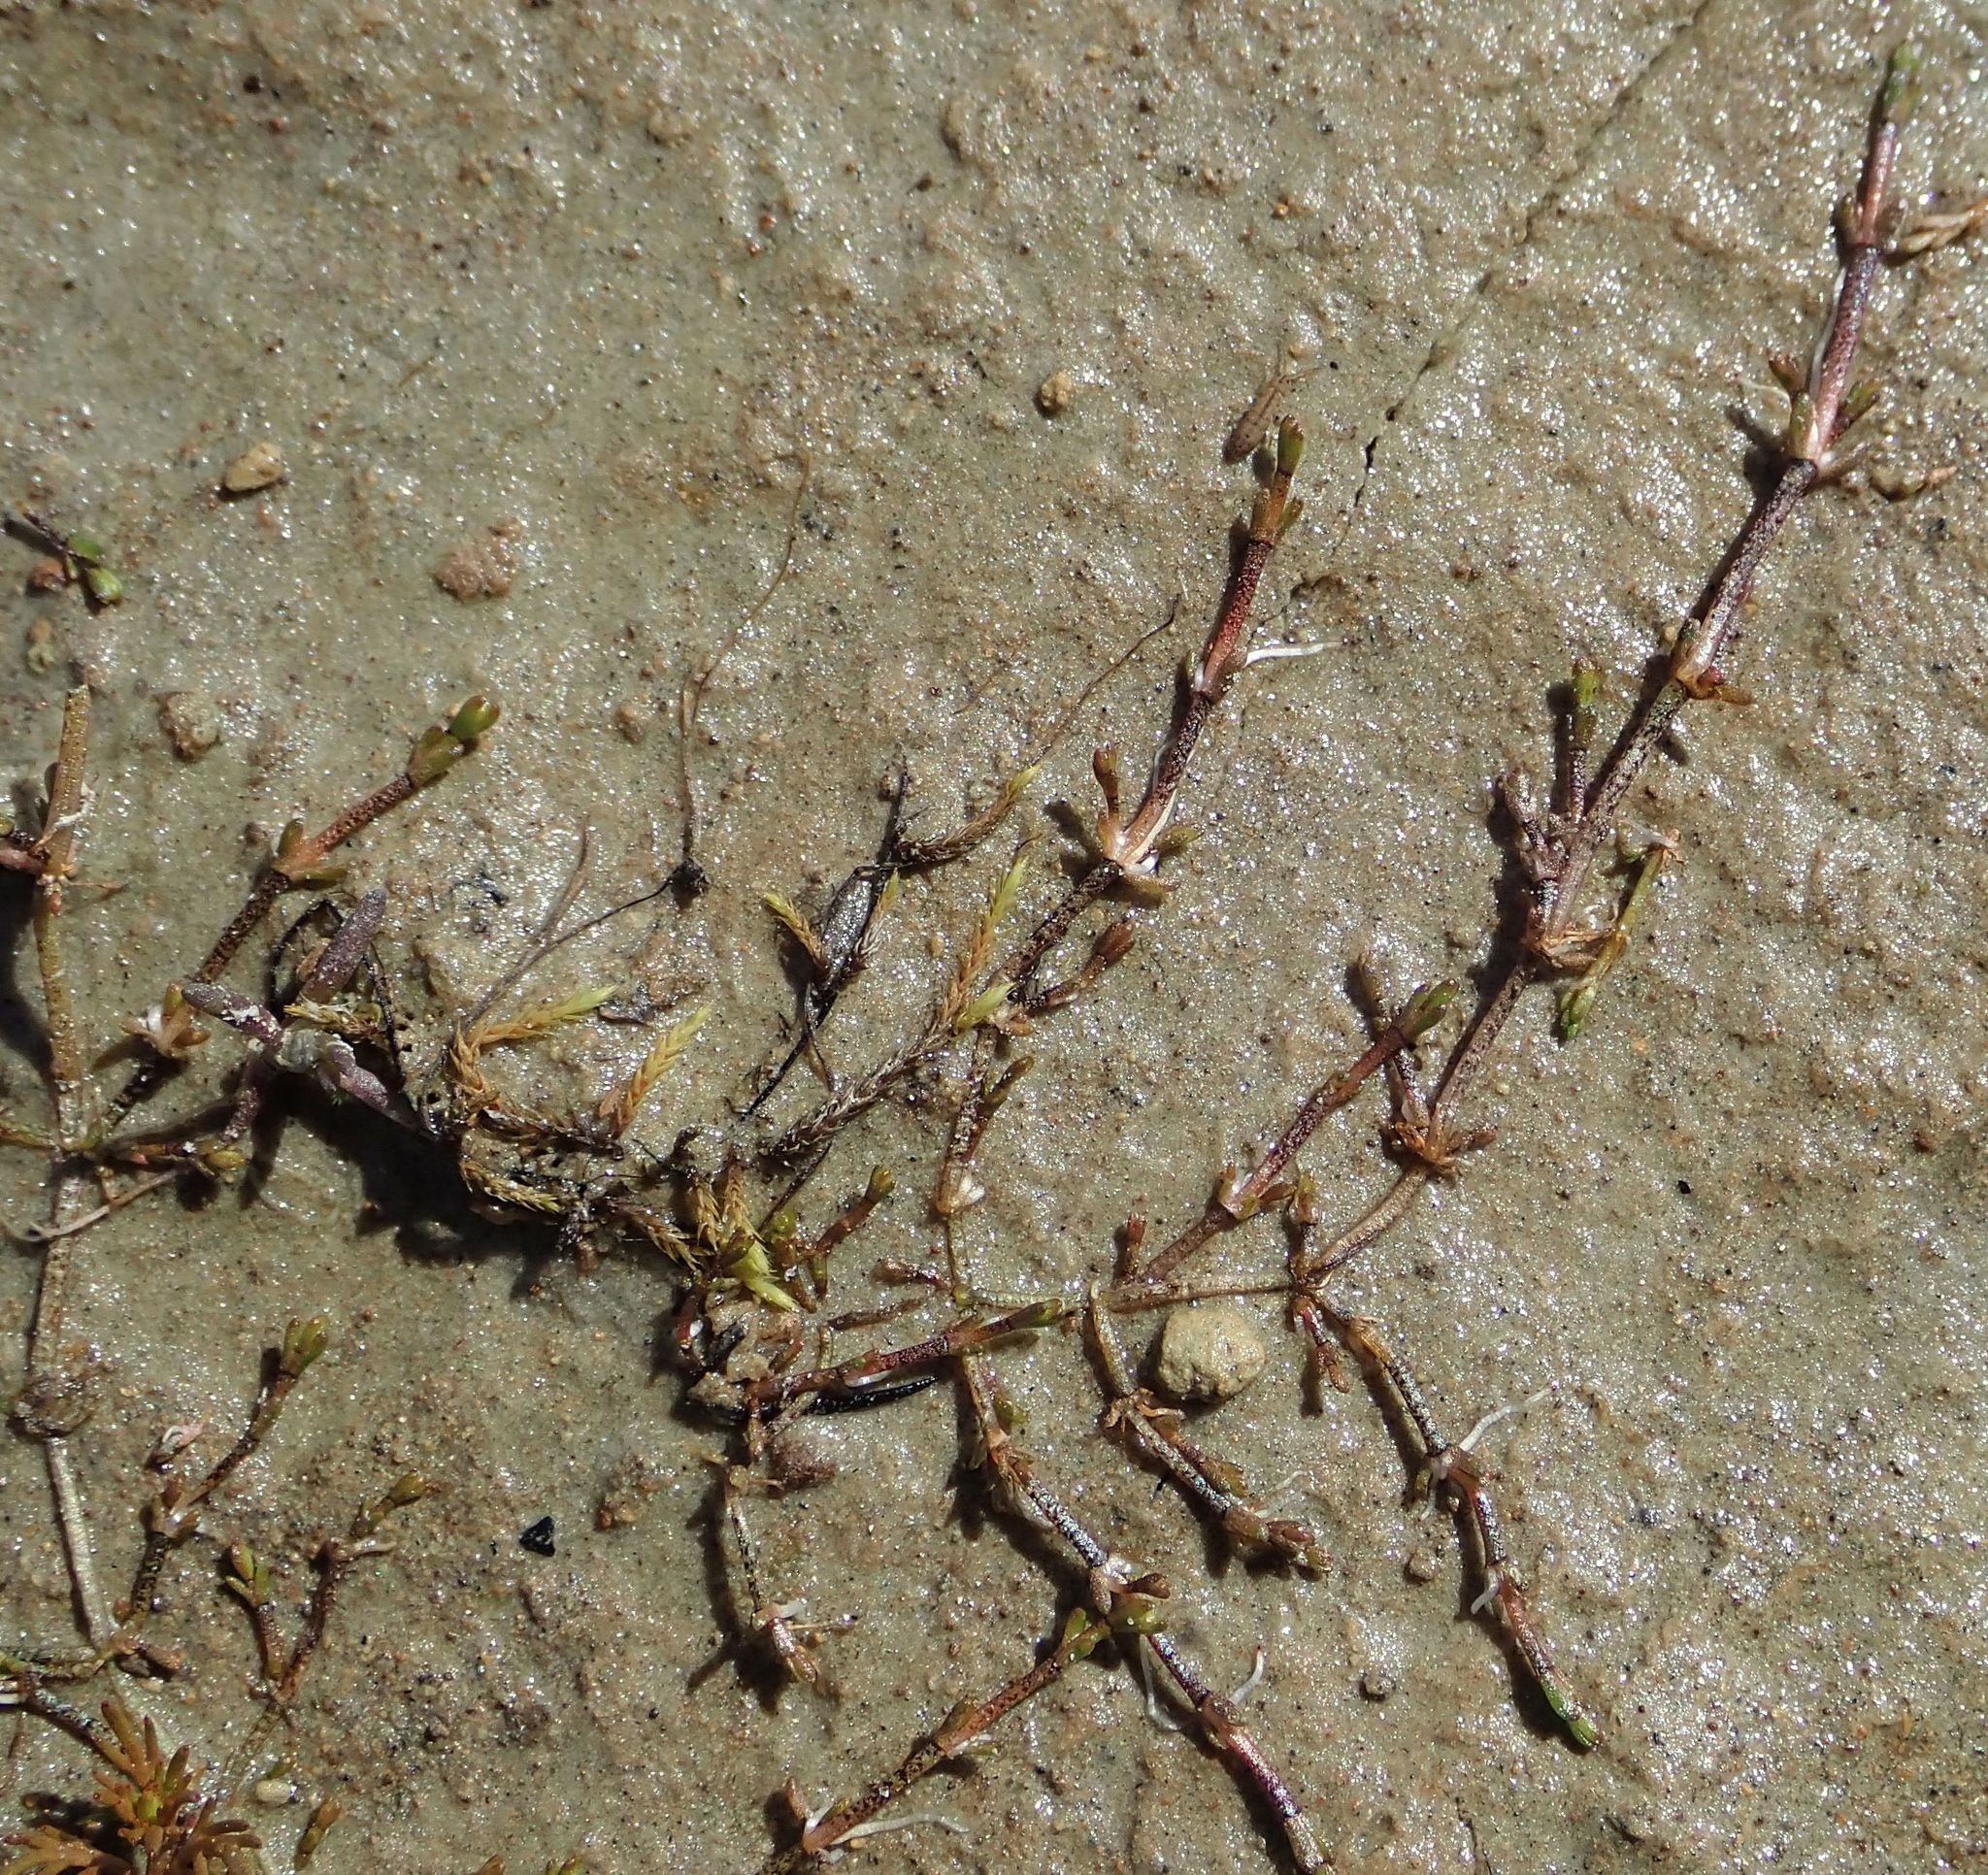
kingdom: Plantae
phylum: Tracheophyta
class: Magnoliopsida
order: Saxifragales
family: Crassulaceae
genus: Crassula
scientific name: Crassula sinclairii
